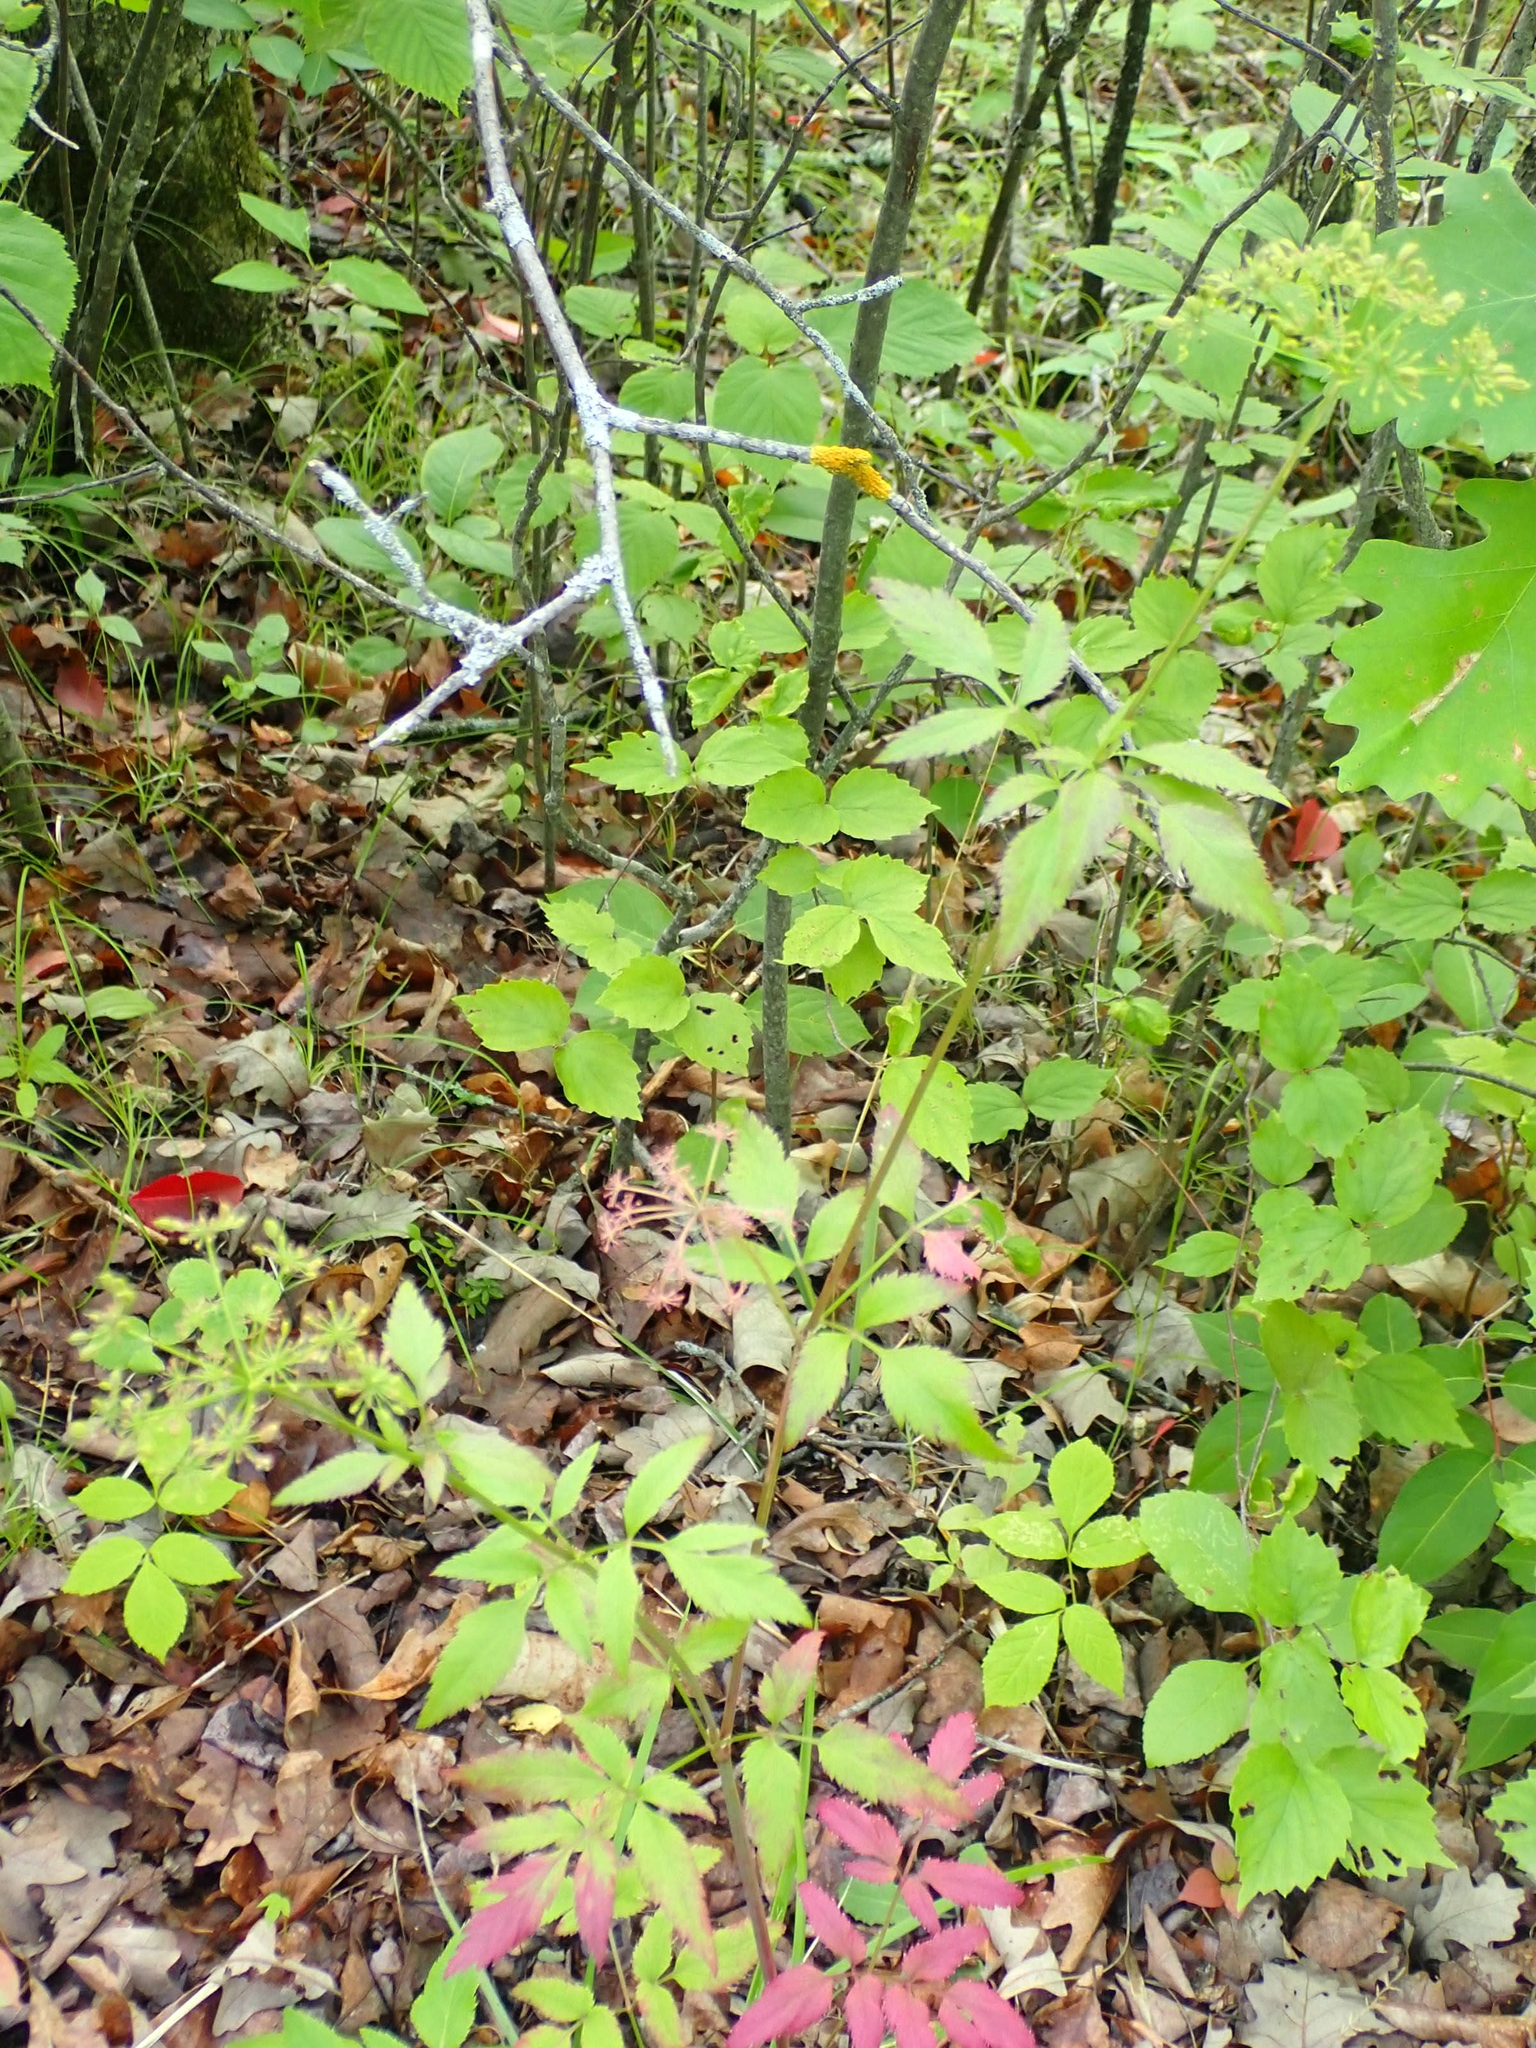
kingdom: Plantae
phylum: Tracheophyta
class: Magnoliopsida
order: Apiales
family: Apiaceae
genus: Zizia
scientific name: Zizia aurea
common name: Golden alexanders
